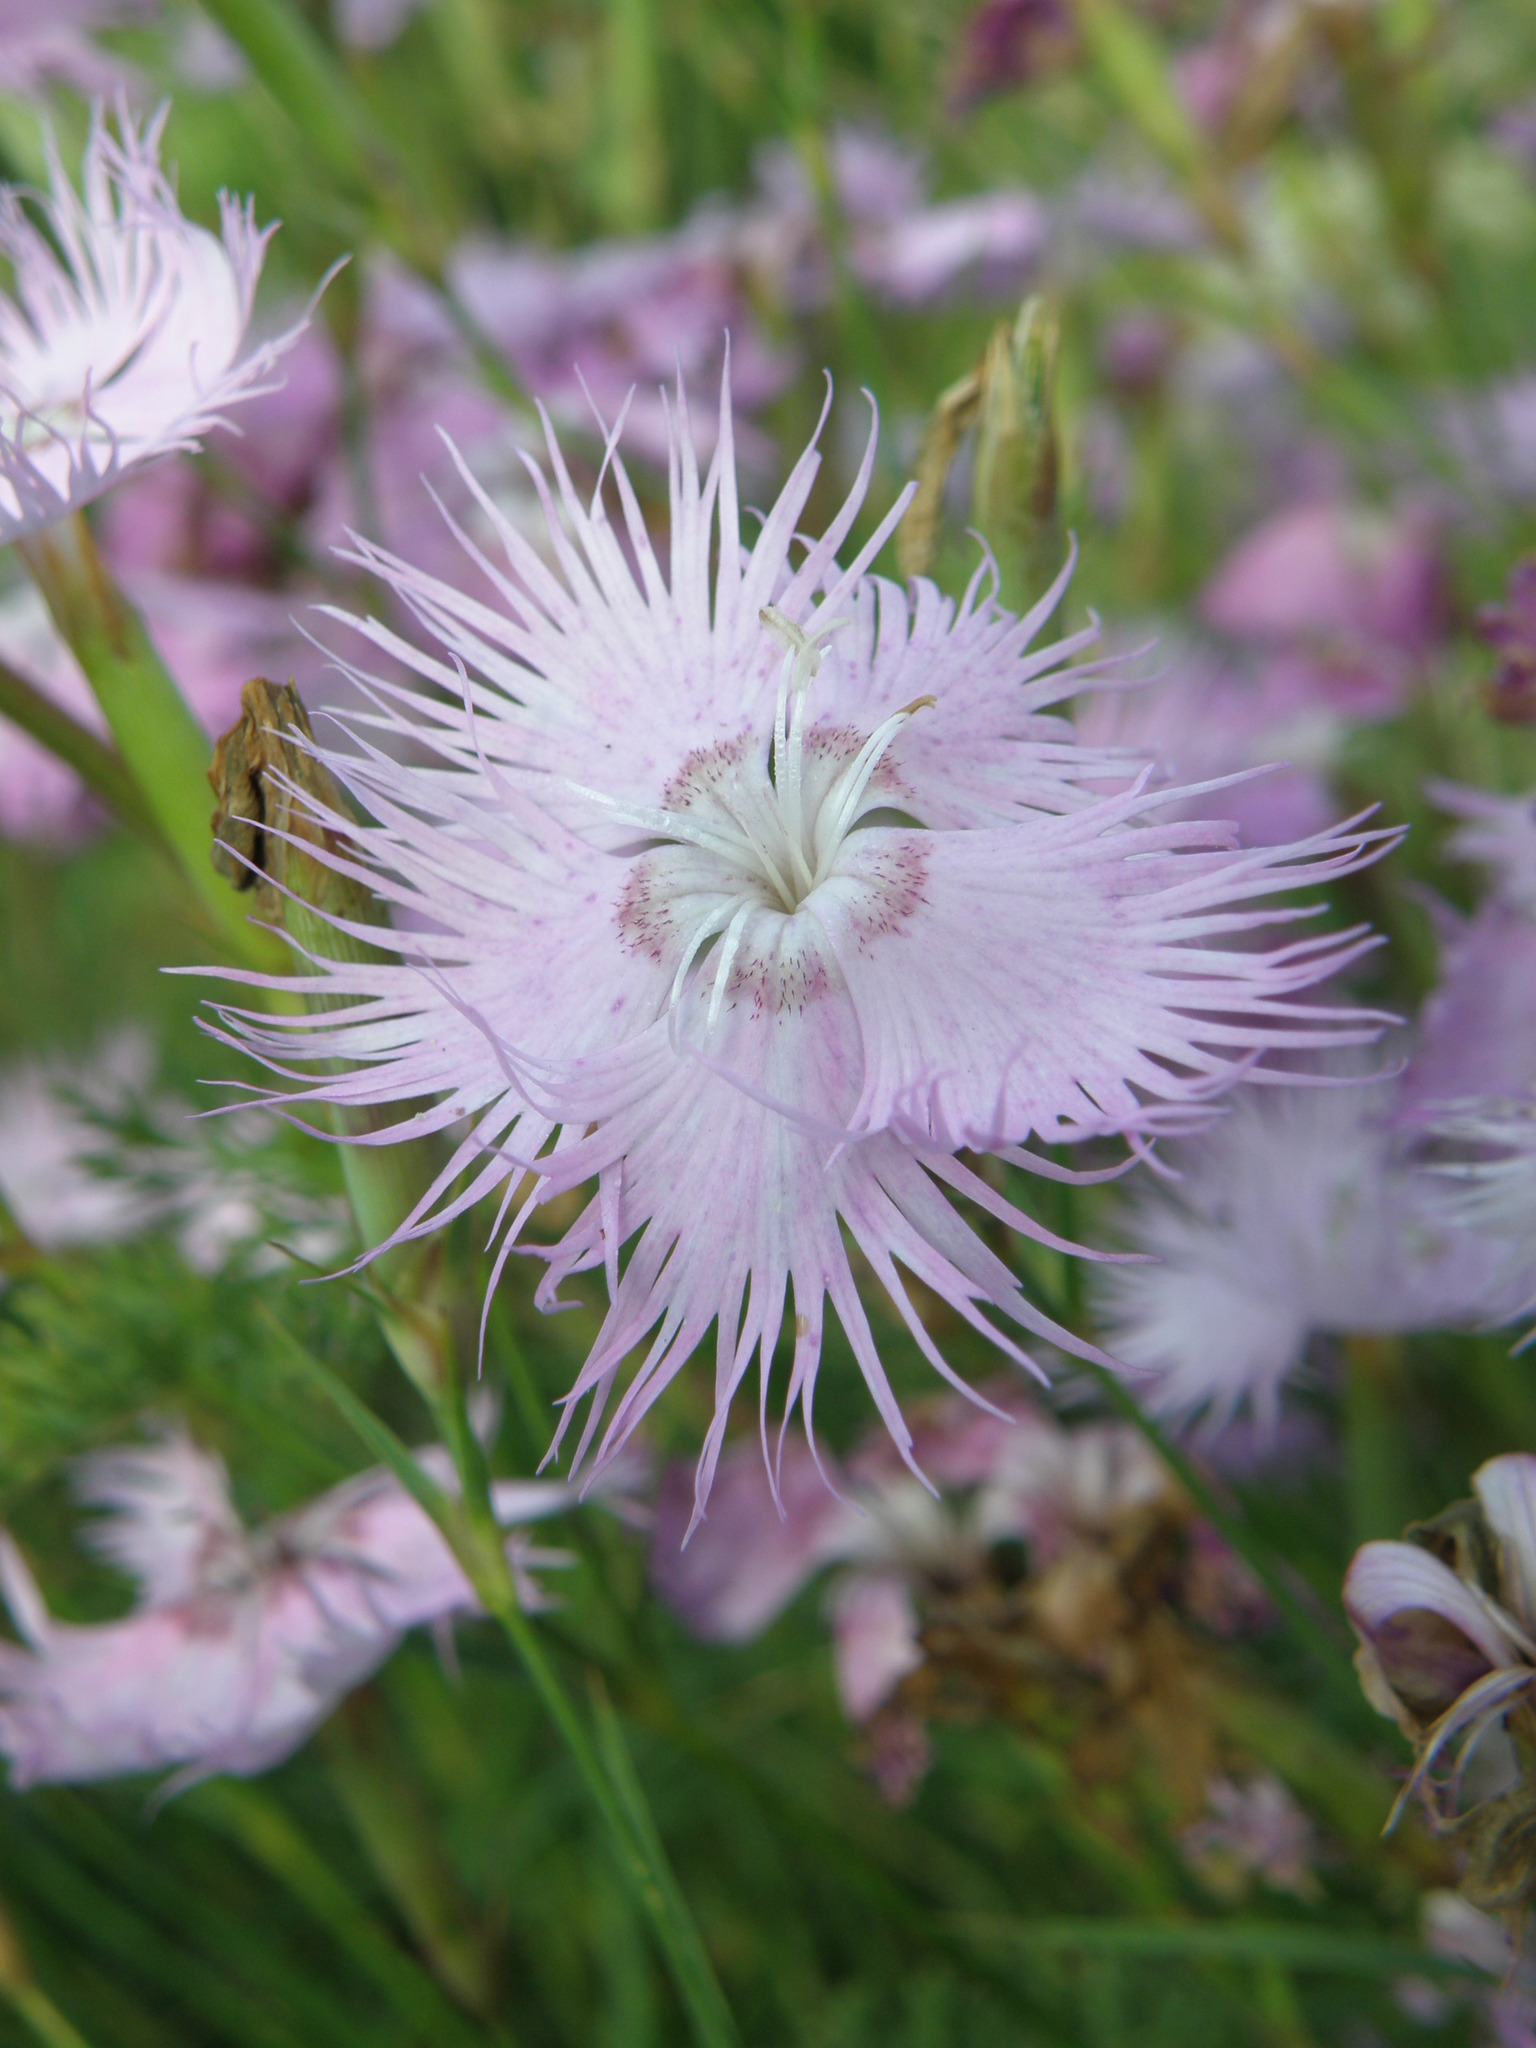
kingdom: Plantae
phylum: Tracheophyta
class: Magnoliopsida
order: Caryophyllales
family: Caryophyllaceae
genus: Dianthus
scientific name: Dianthus hyssopifolius
